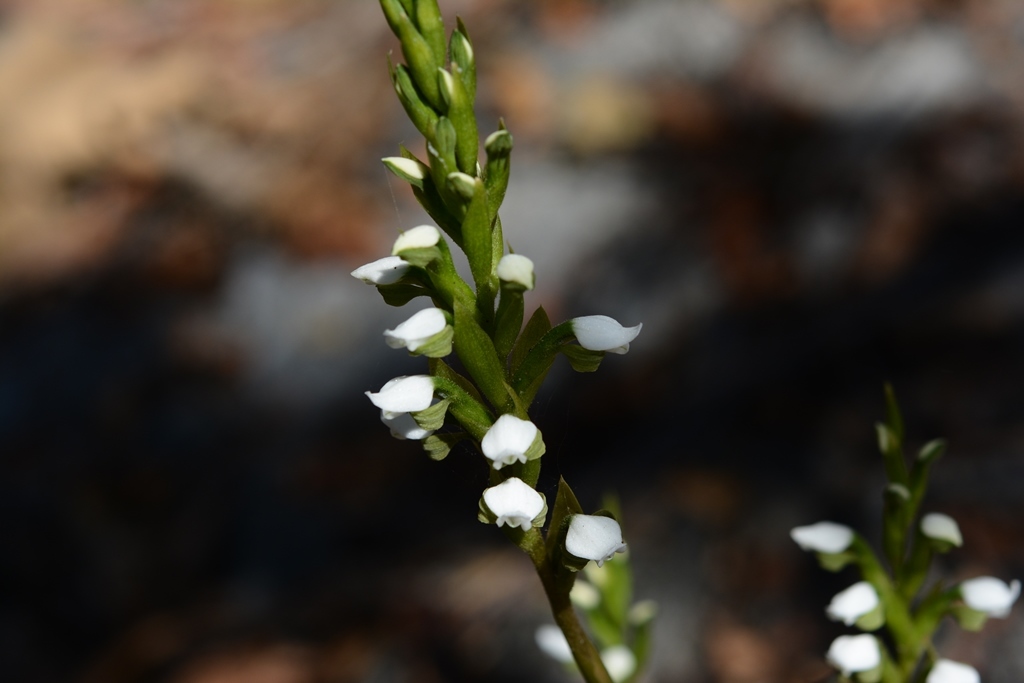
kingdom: Plantae
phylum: Tracheophyta
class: Liliopsida
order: Asparagales
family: Orchidaceae
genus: Aulosepalum
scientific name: Aulosepalum hemichrea
